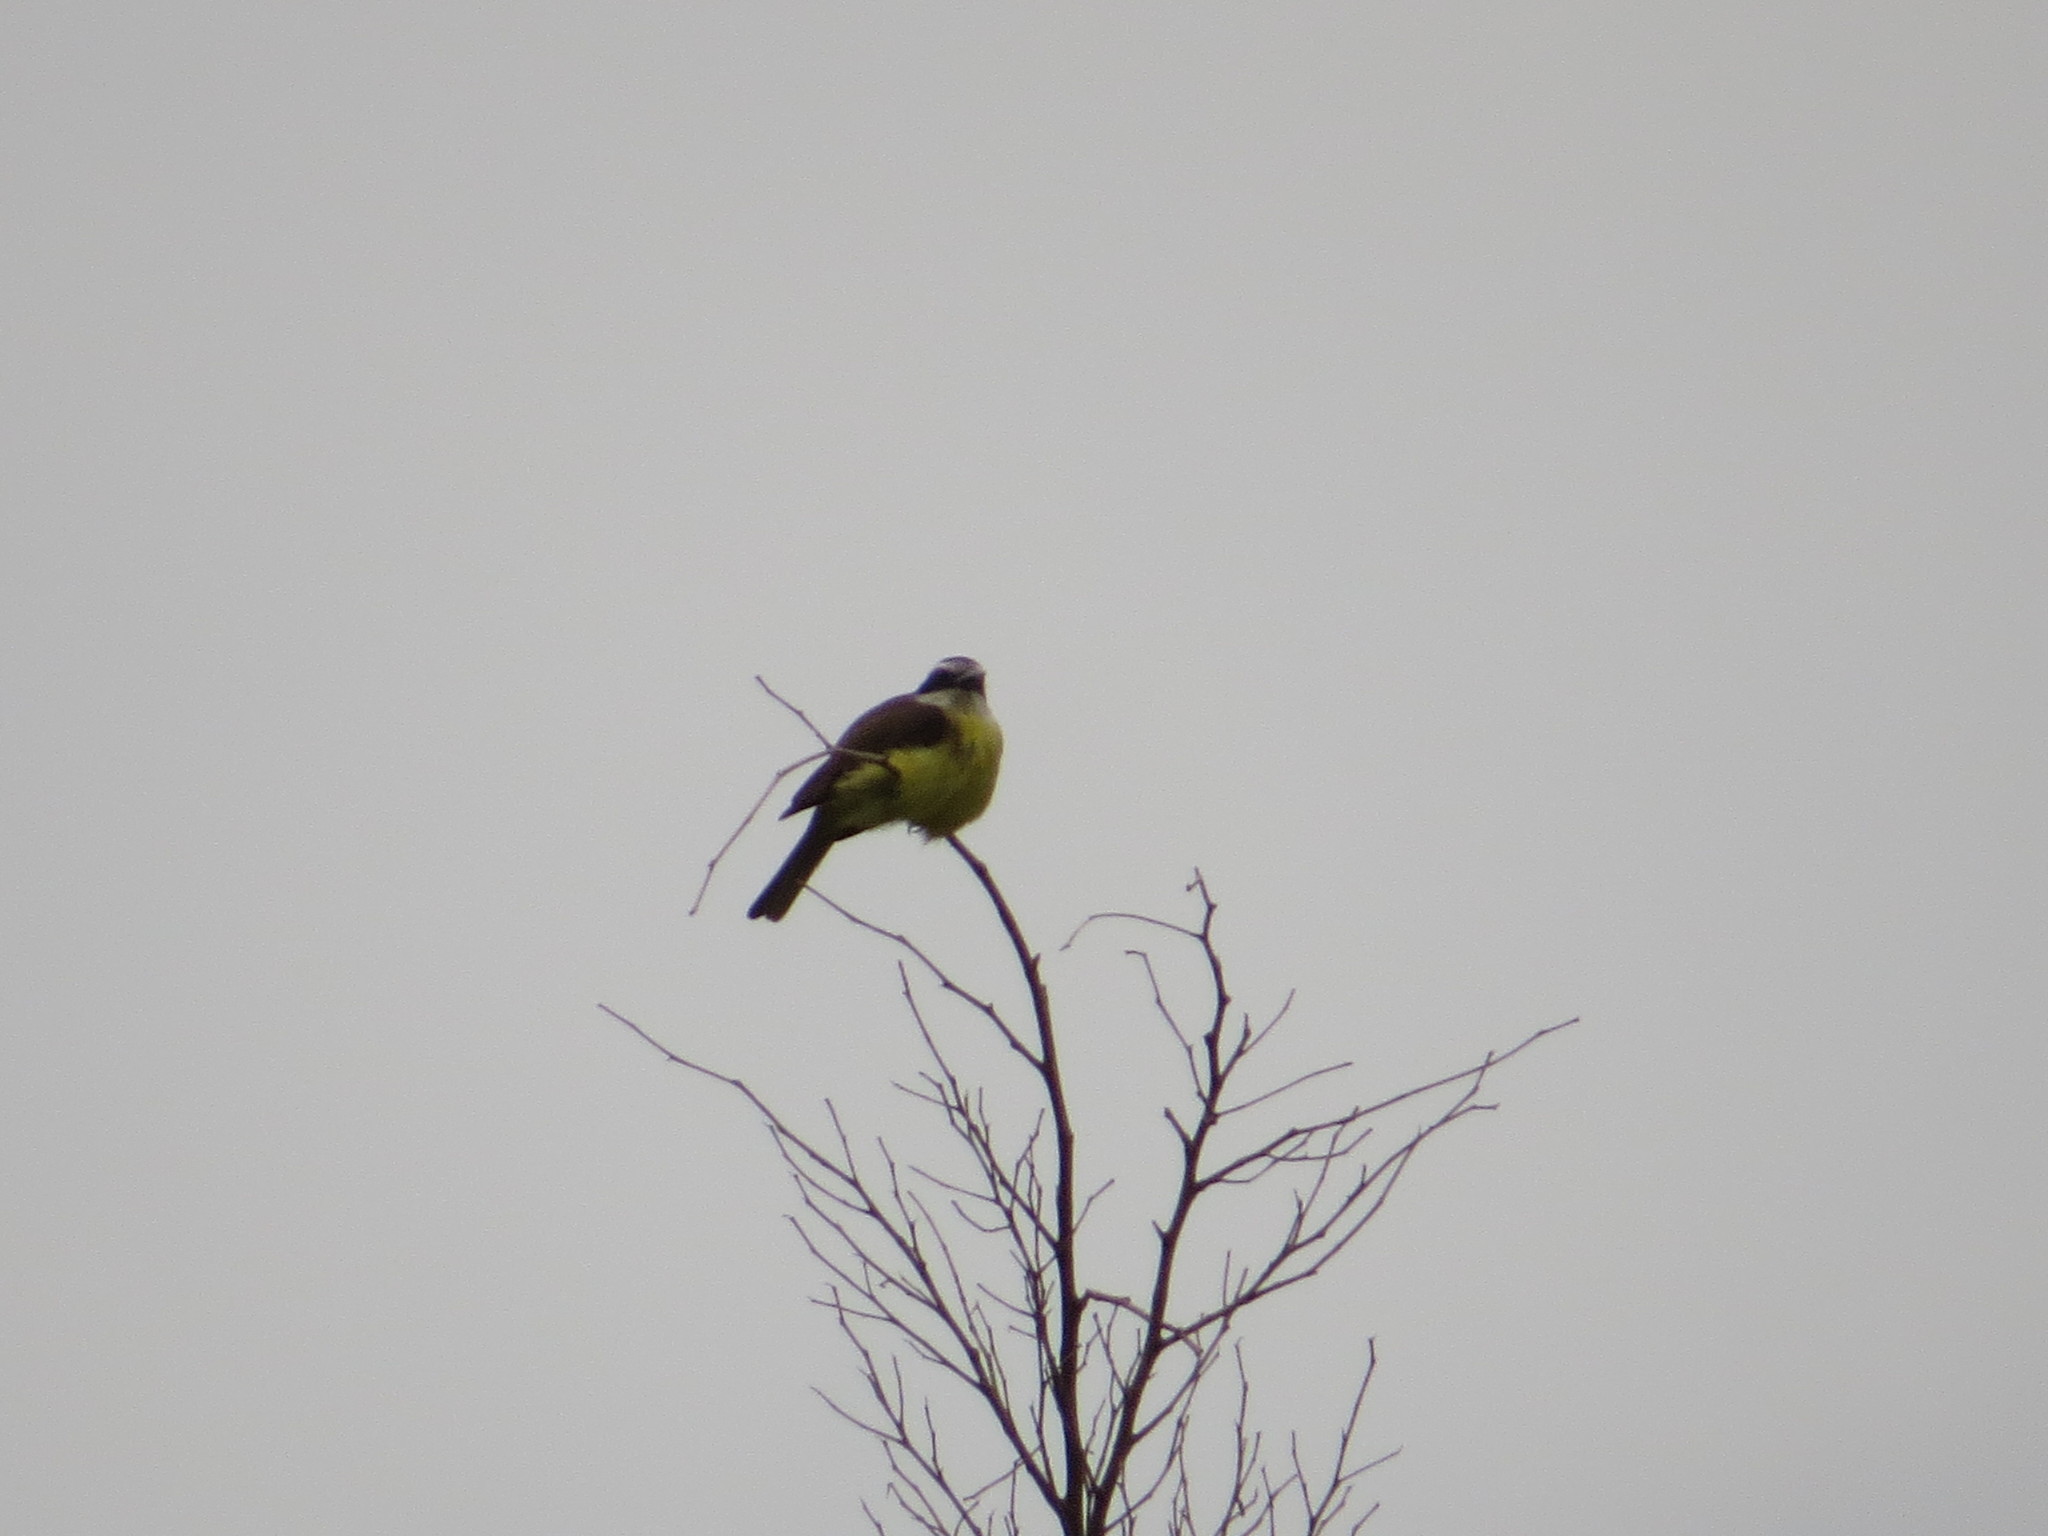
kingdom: Animalia
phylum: Chordata
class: Aves
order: Passeriformes
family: Tyrannidae
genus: Myiozetetes
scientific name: Myiozetetes similis
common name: Social flycatcher
